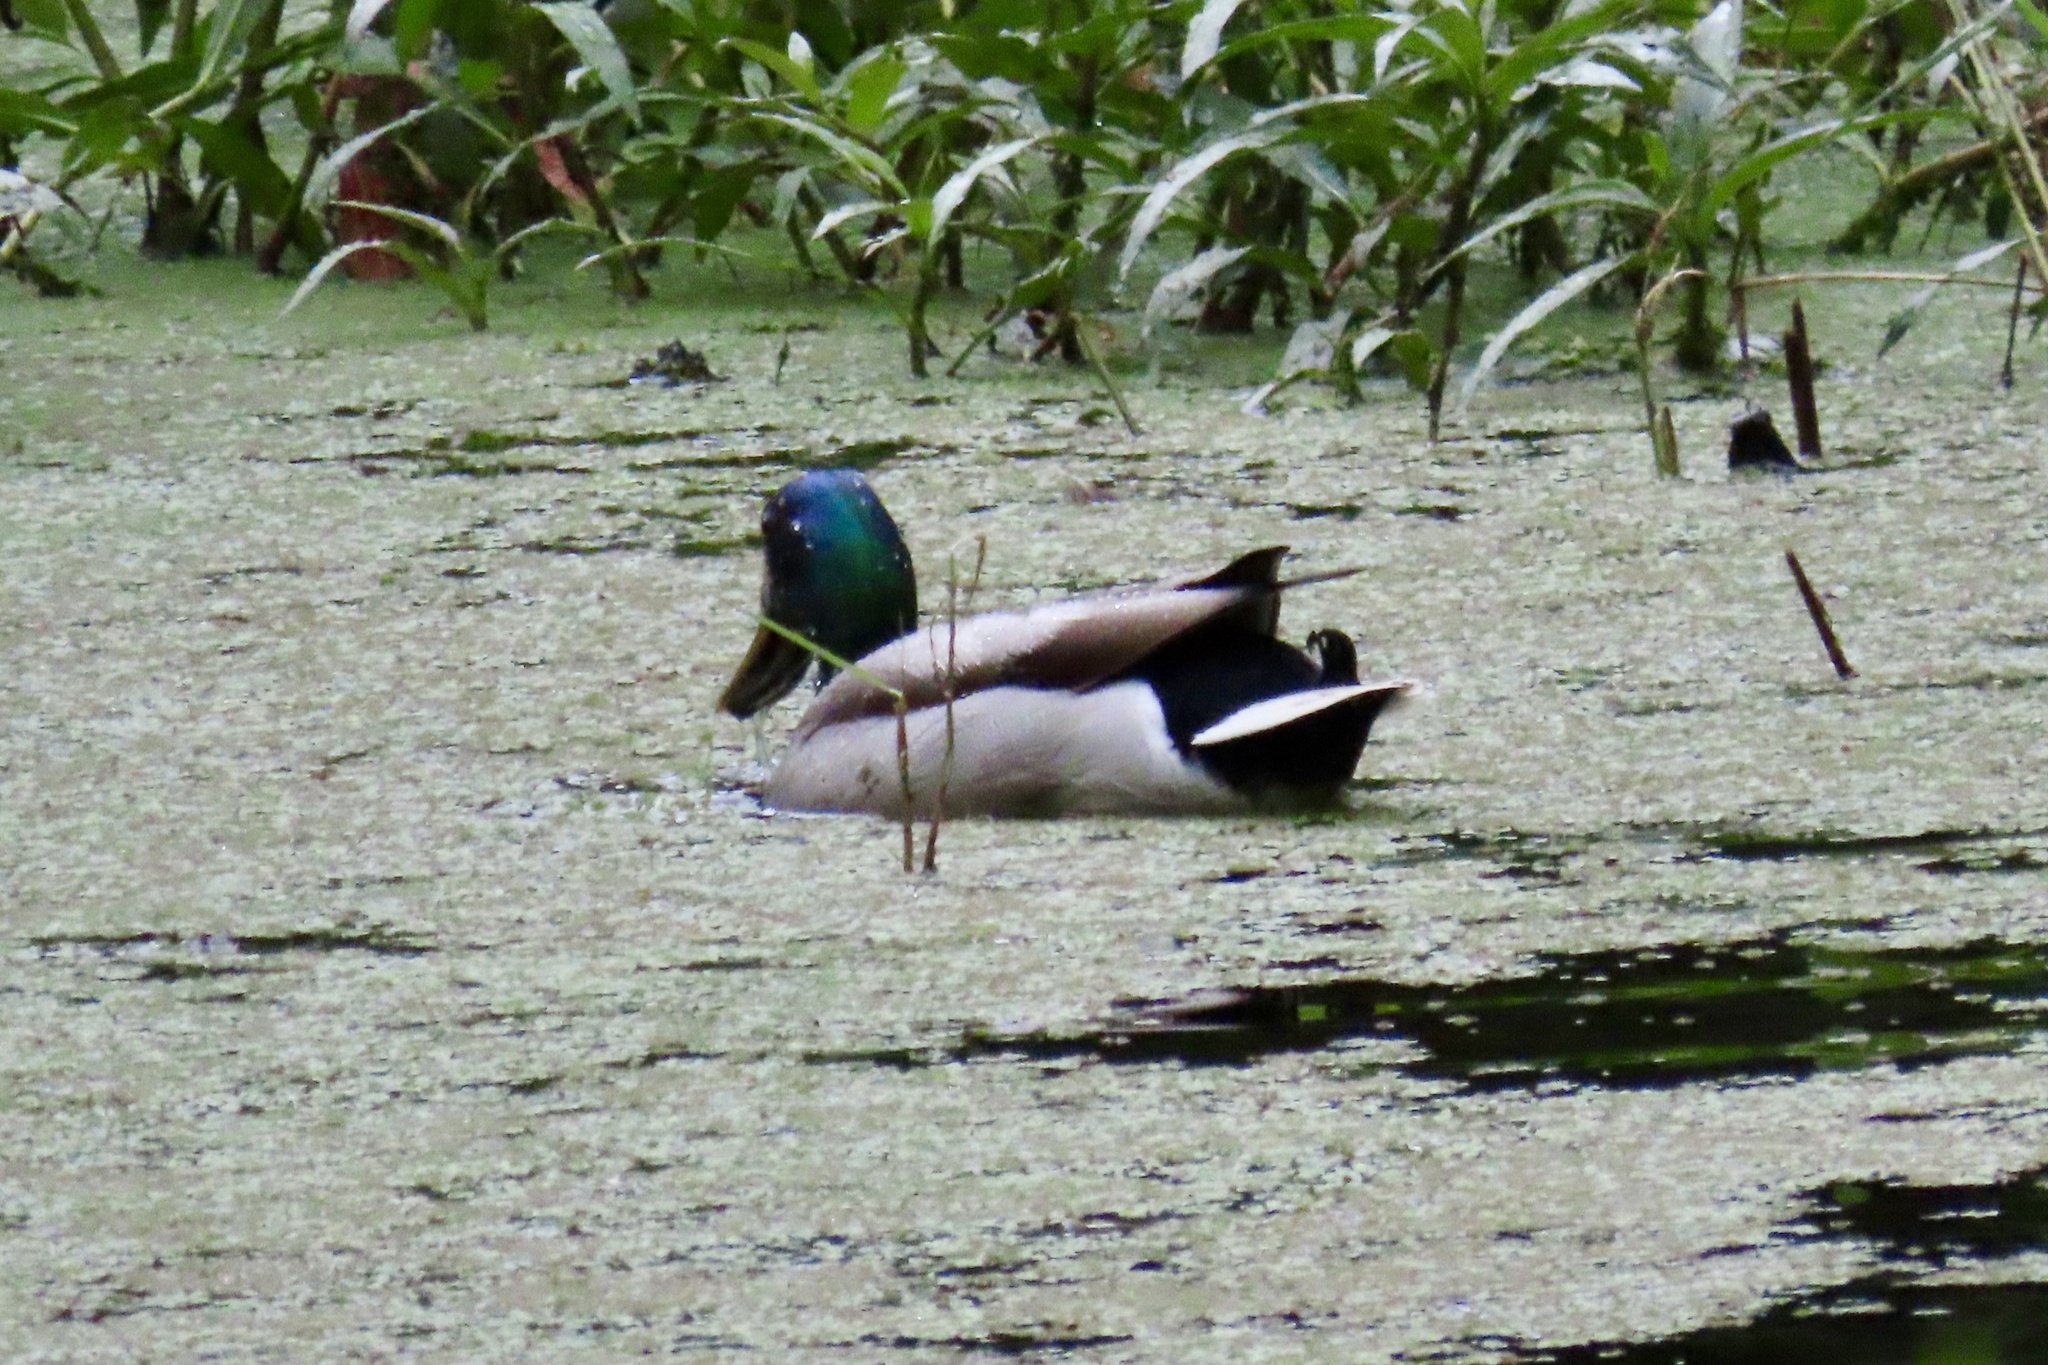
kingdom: Animalia
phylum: Chordata
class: Aves
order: Anseriformes
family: Anatidae
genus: Anas
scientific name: Anas platyrhynchos
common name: Mallard
